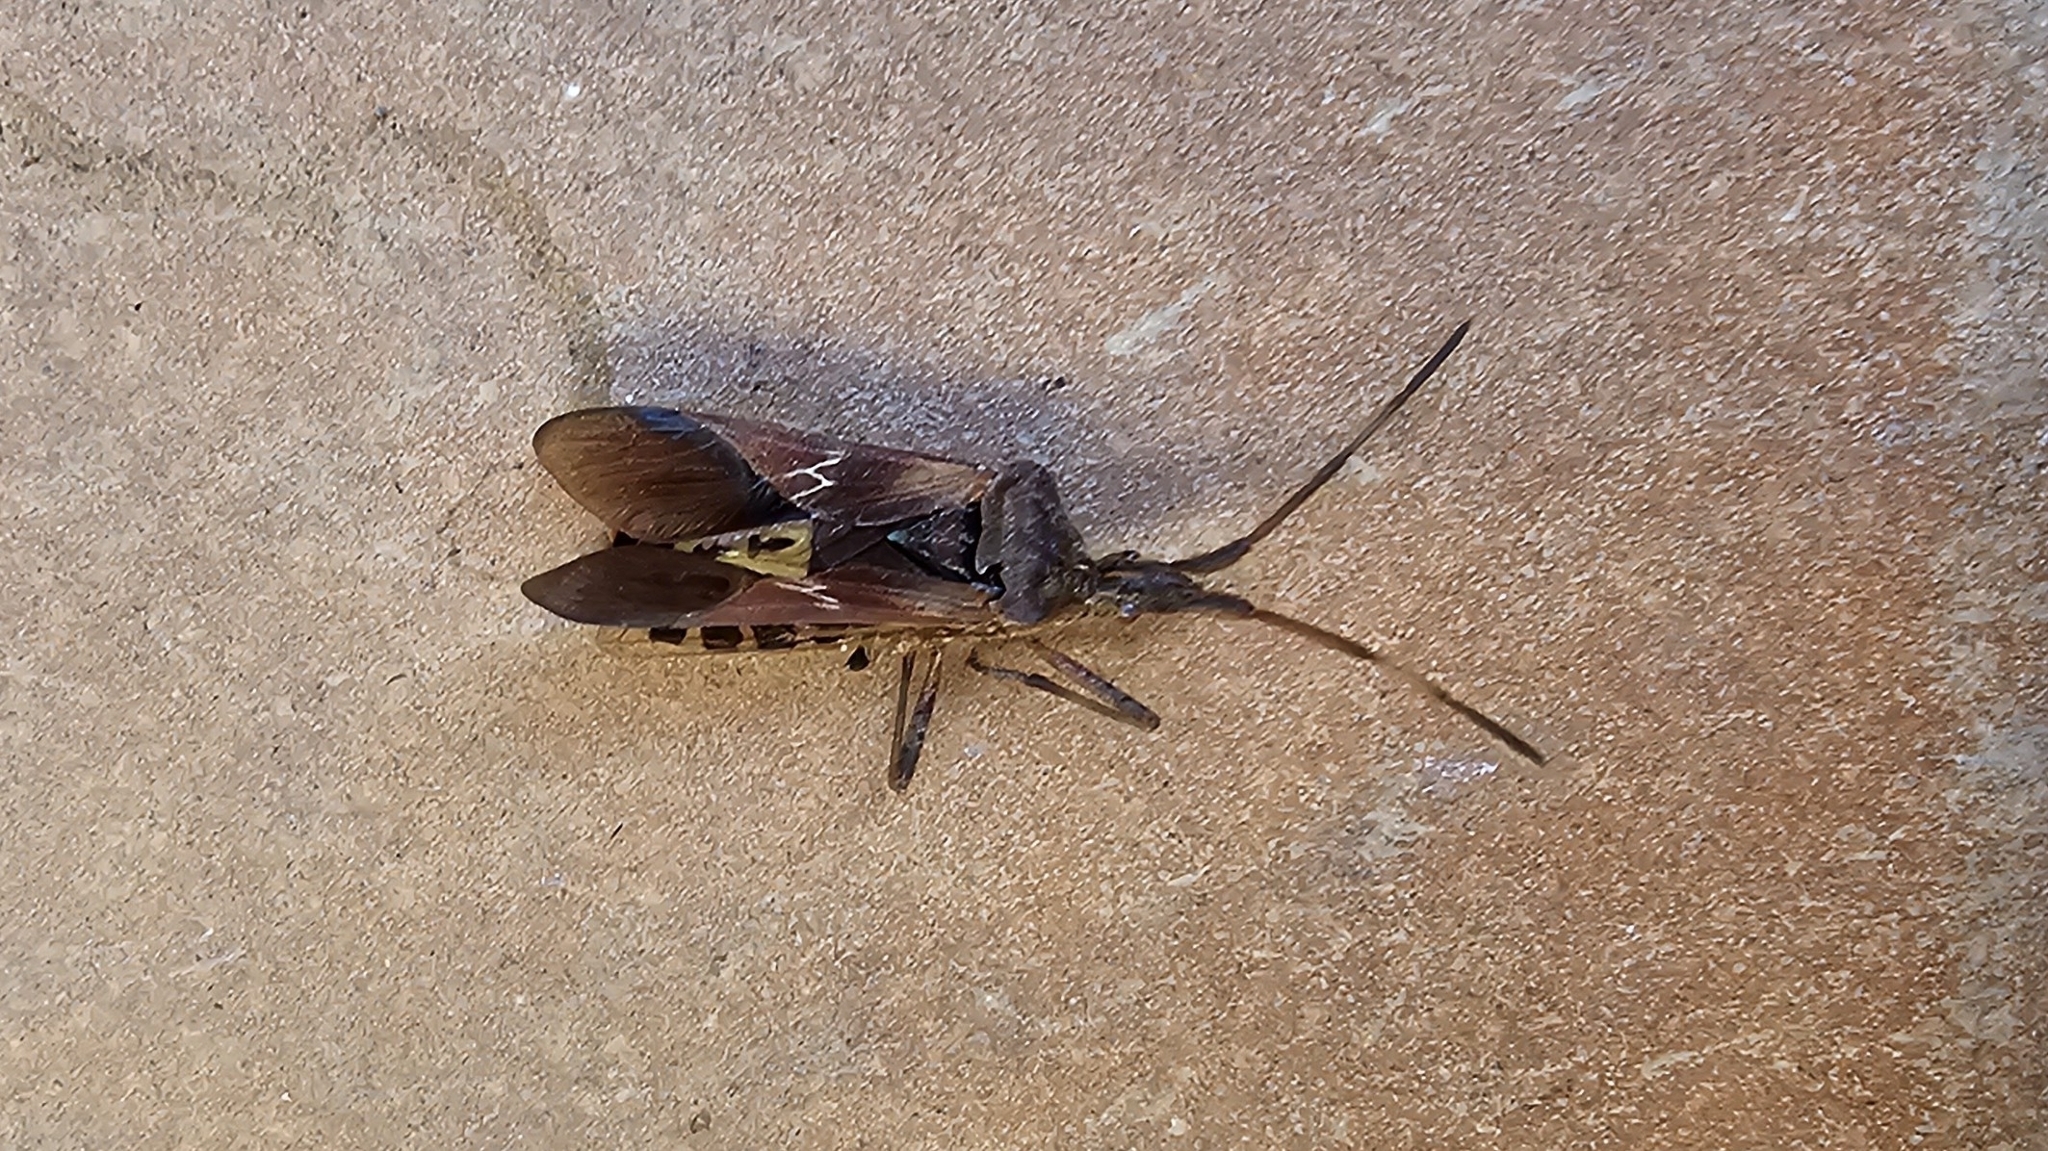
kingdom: Animalia
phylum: Arthropoda
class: Insecta
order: Hemiptera
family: Coreidae
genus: Leptoglossus
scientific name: Leptoglossus occidentalis
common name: Western conifer-seed bug
